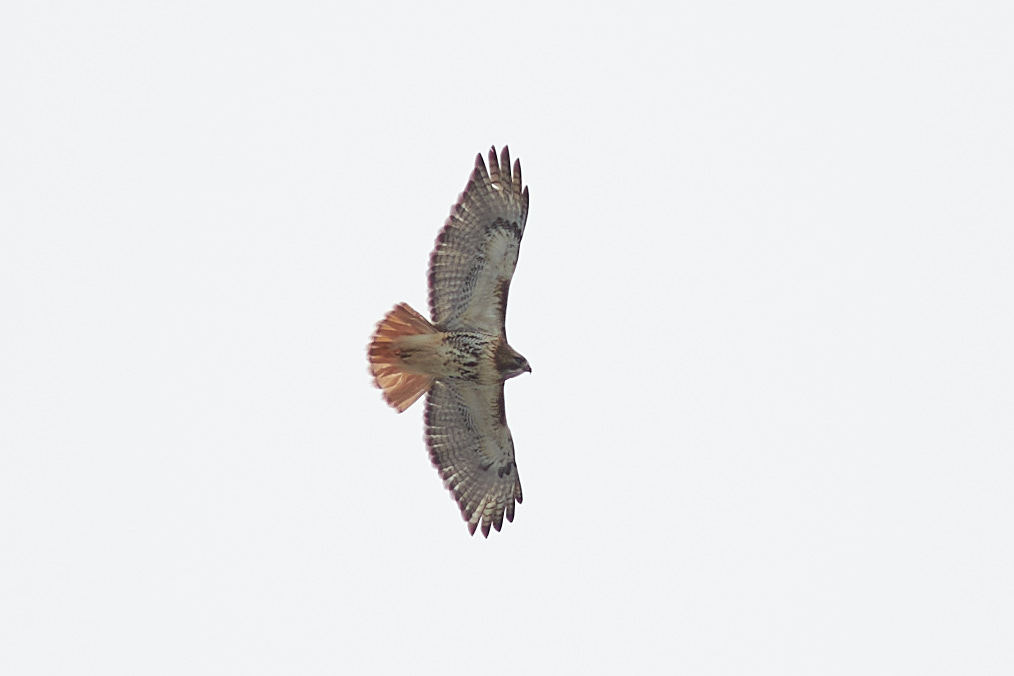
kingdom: Animalia
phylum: Chordata
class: Aves
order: Accipitriformes
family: Accipitridae
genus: Buteo
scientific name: Buteo jamaicensis
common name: Red-tailed hawk
